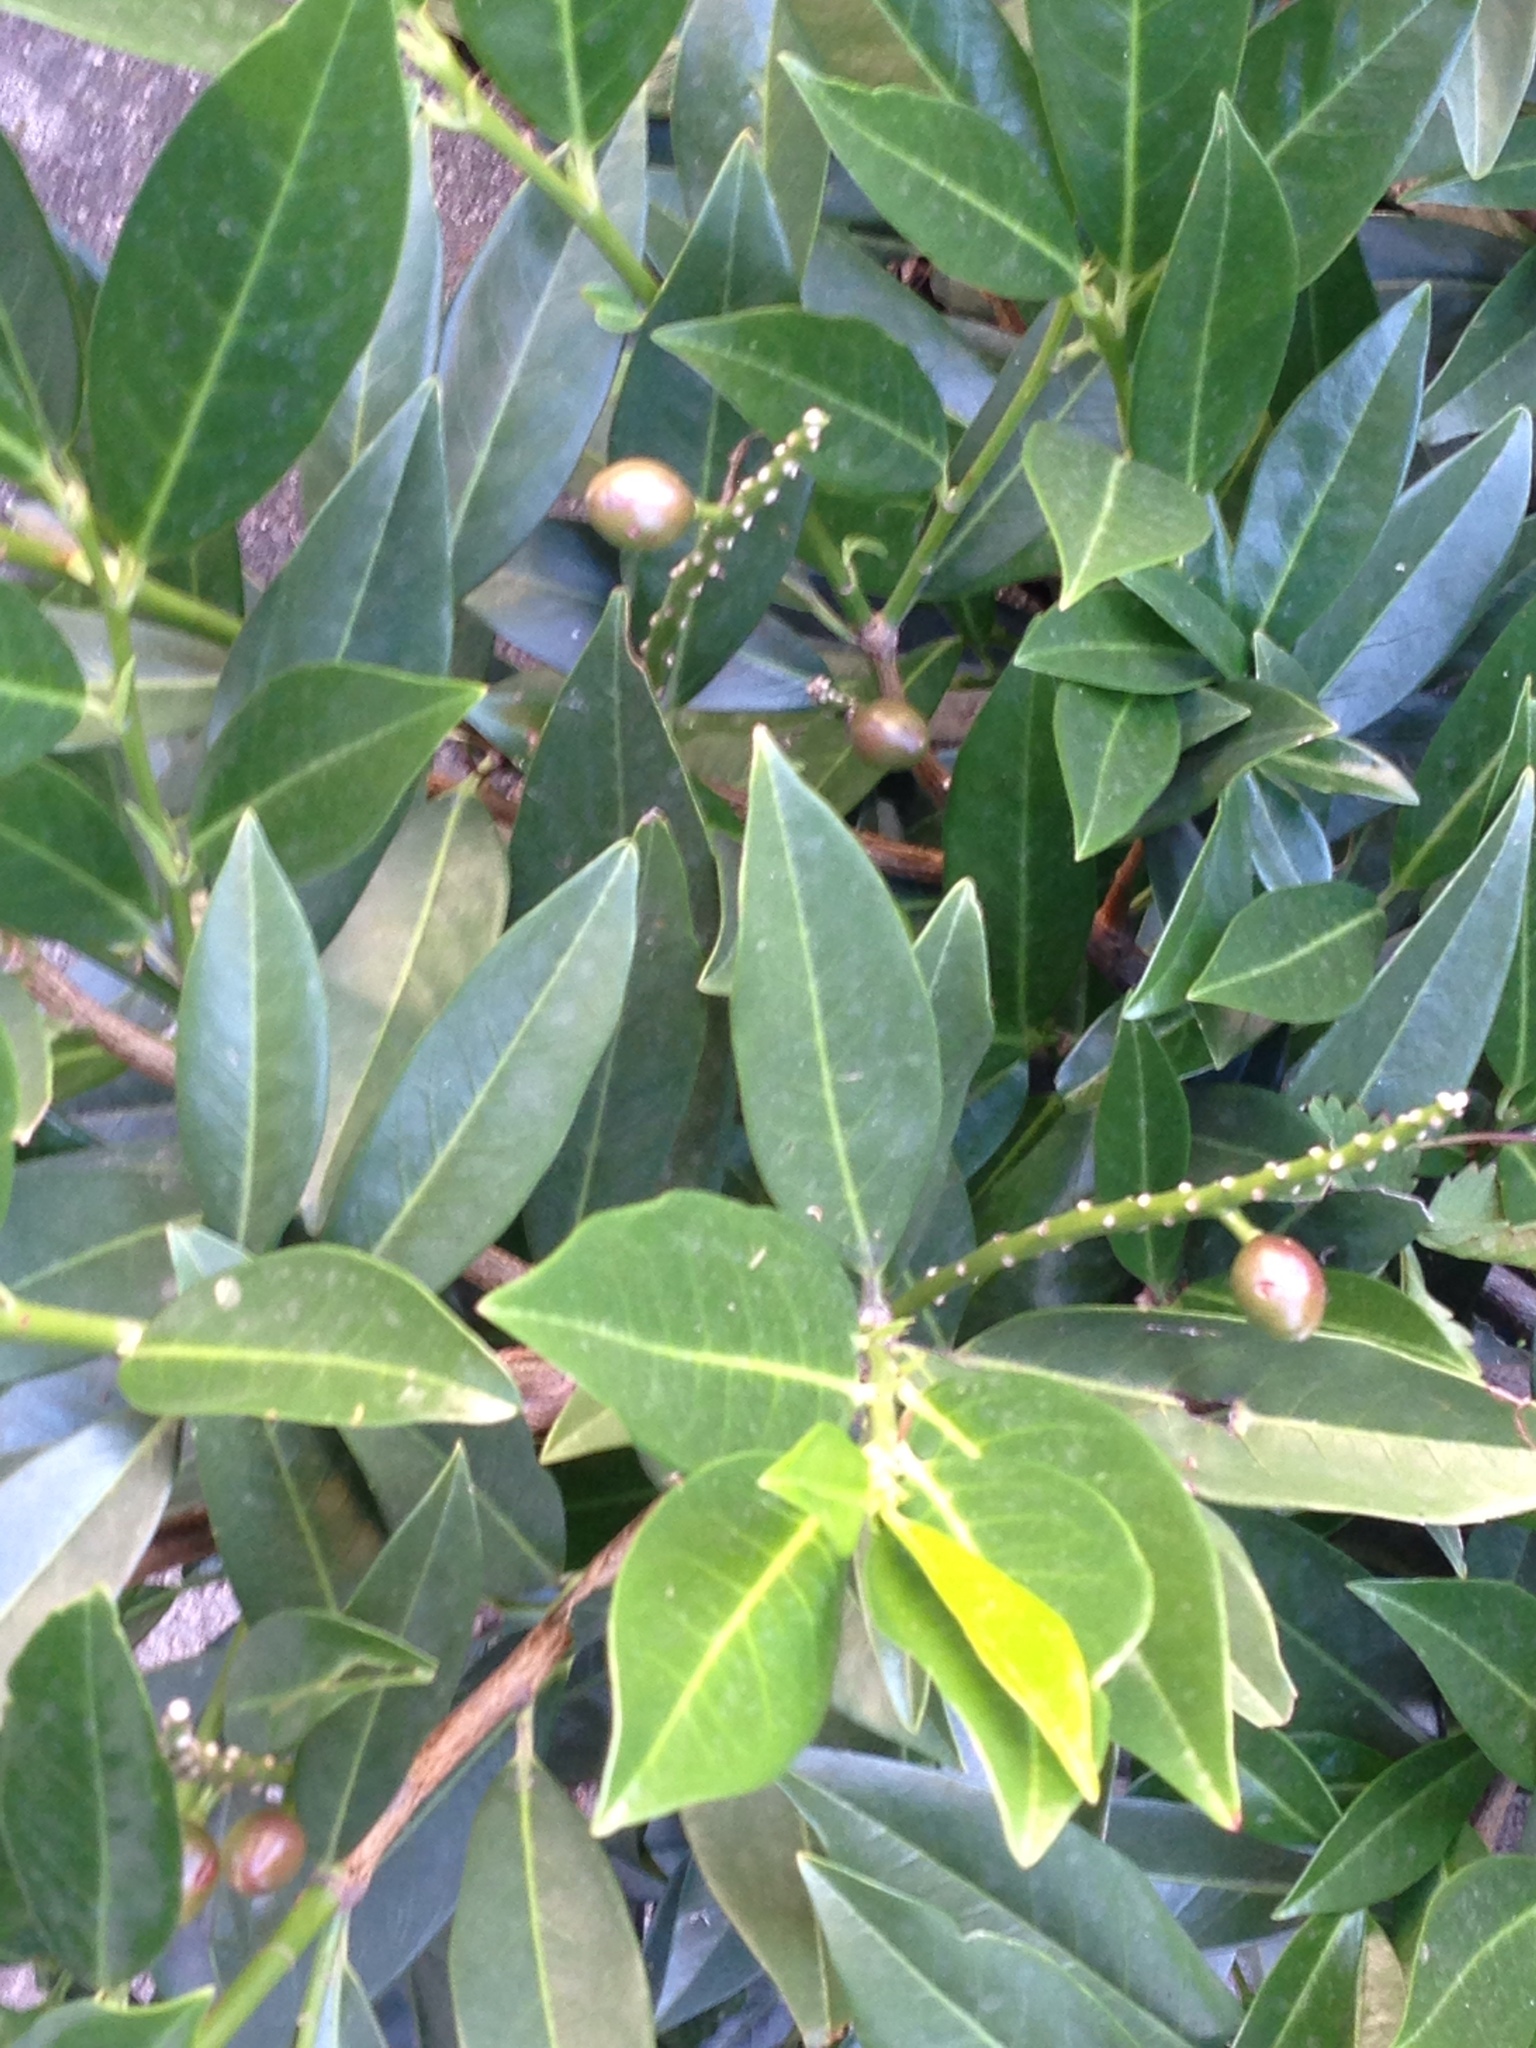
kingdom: Plantae
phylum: Tracheophyta
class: Magnoliopsida
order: Rosales
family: Rosaceae
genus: Prunus
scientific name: Prunus laurocerasus
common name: Cherry laurel
